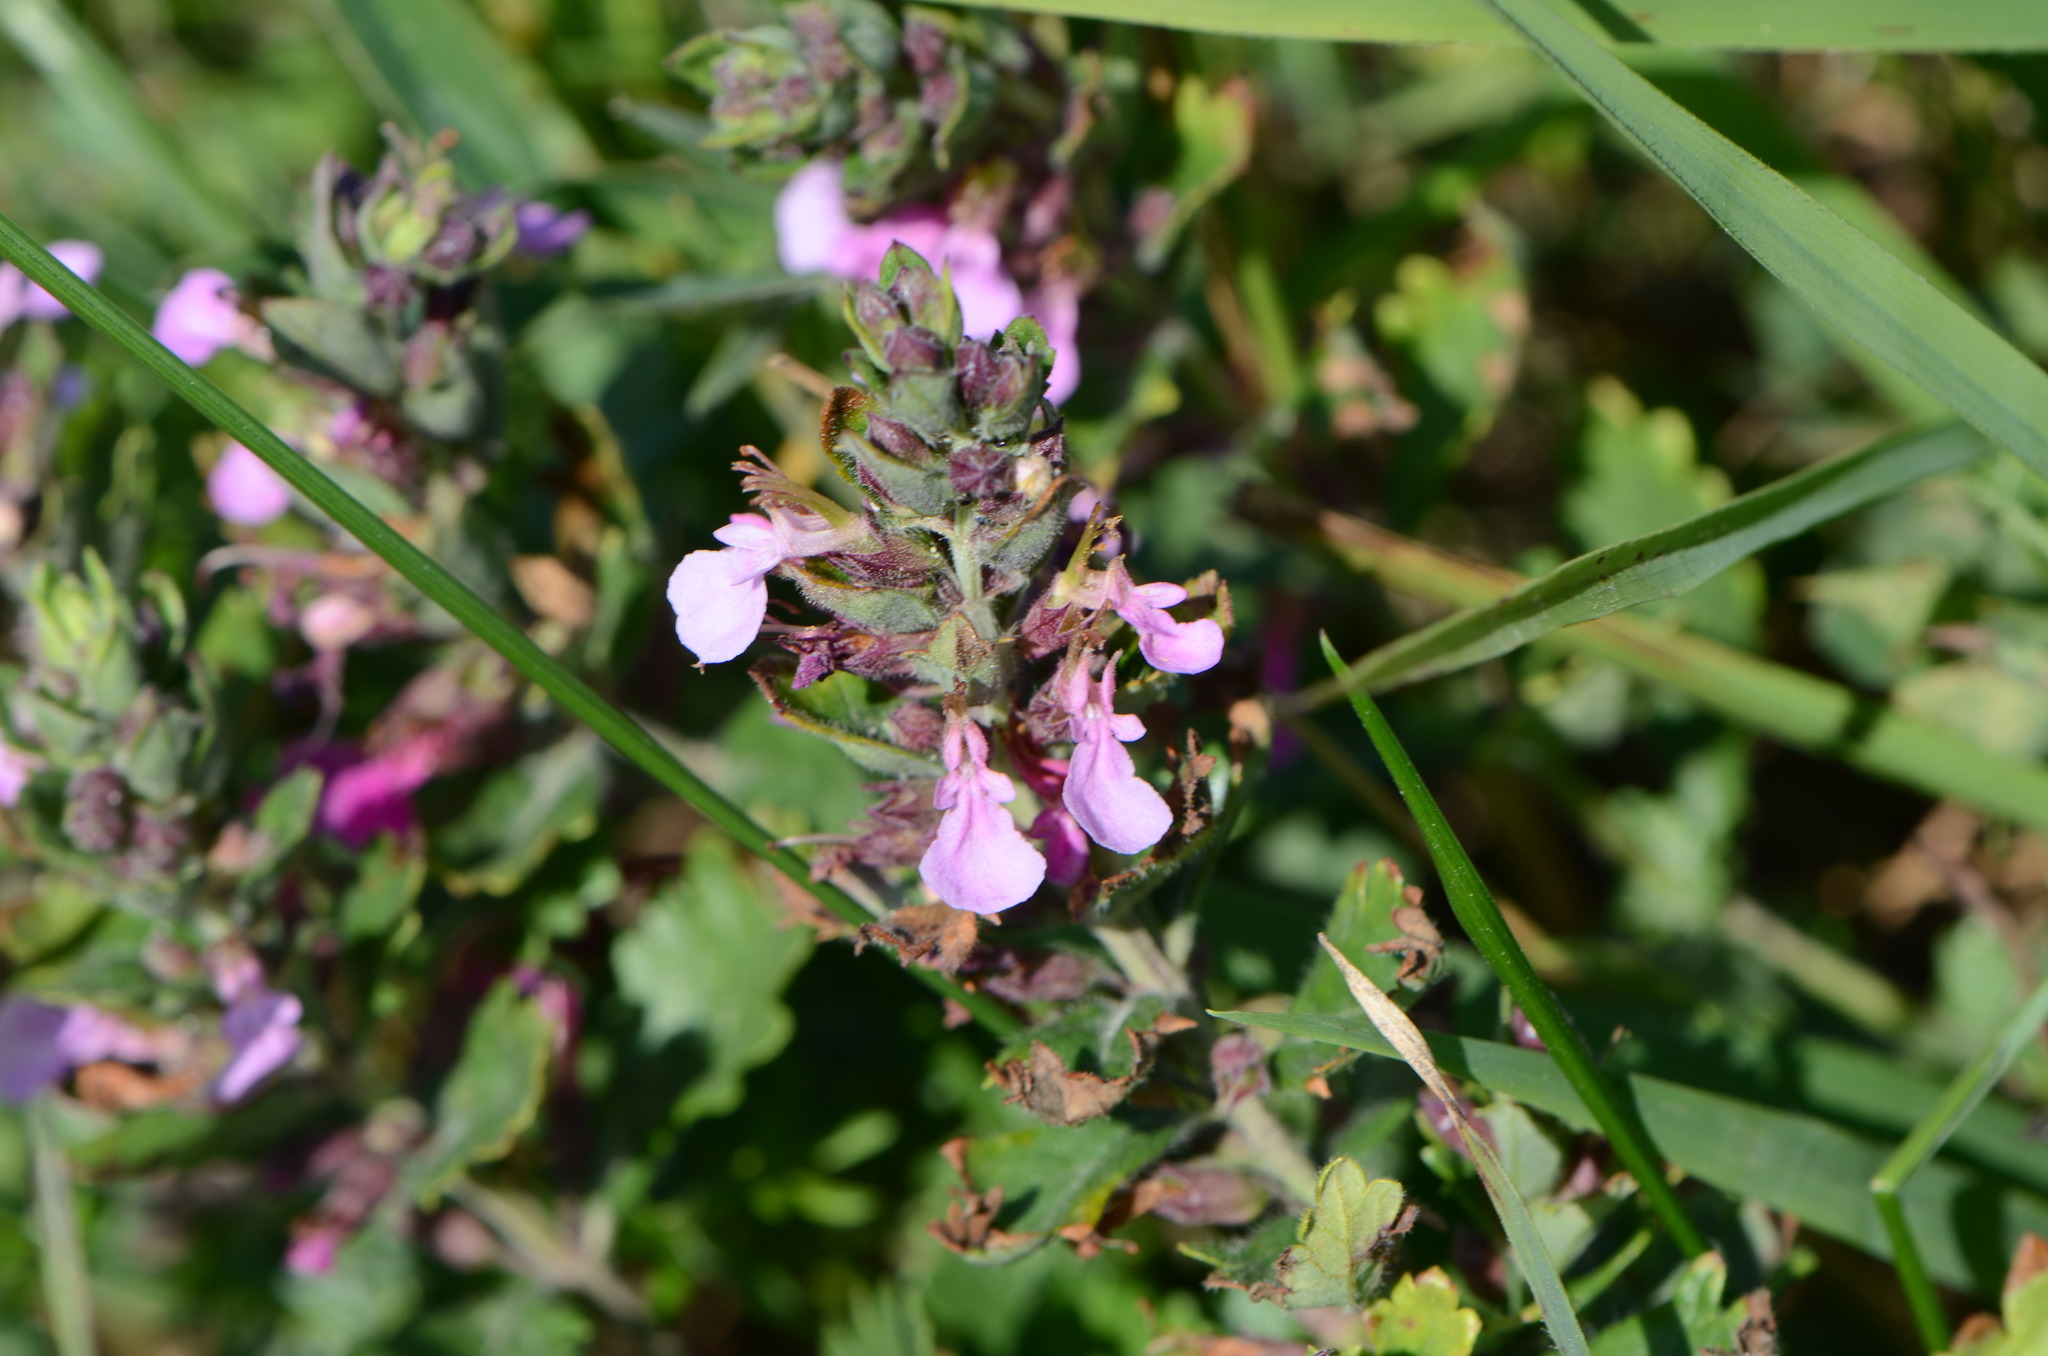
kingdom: Plantae
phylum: Tracheophyta
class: Magnoliopsida
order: Lamiales
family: Lamiaceae
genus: Teucrium
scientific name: Teucrium chamaedrys
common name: Wall germander
